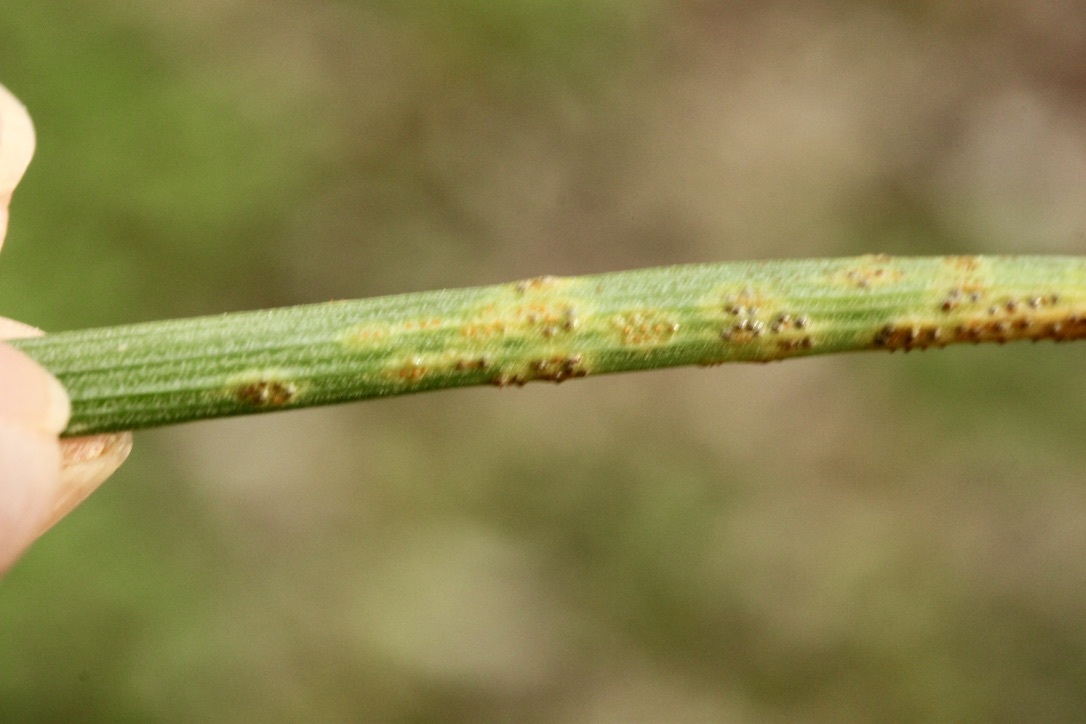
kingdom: Fungi
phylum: Basidiomycota
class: Pucciniomycetes
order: Pucciniales
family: Pucciniaceae
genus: Puccinia
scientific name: Puccinia liliacearum
